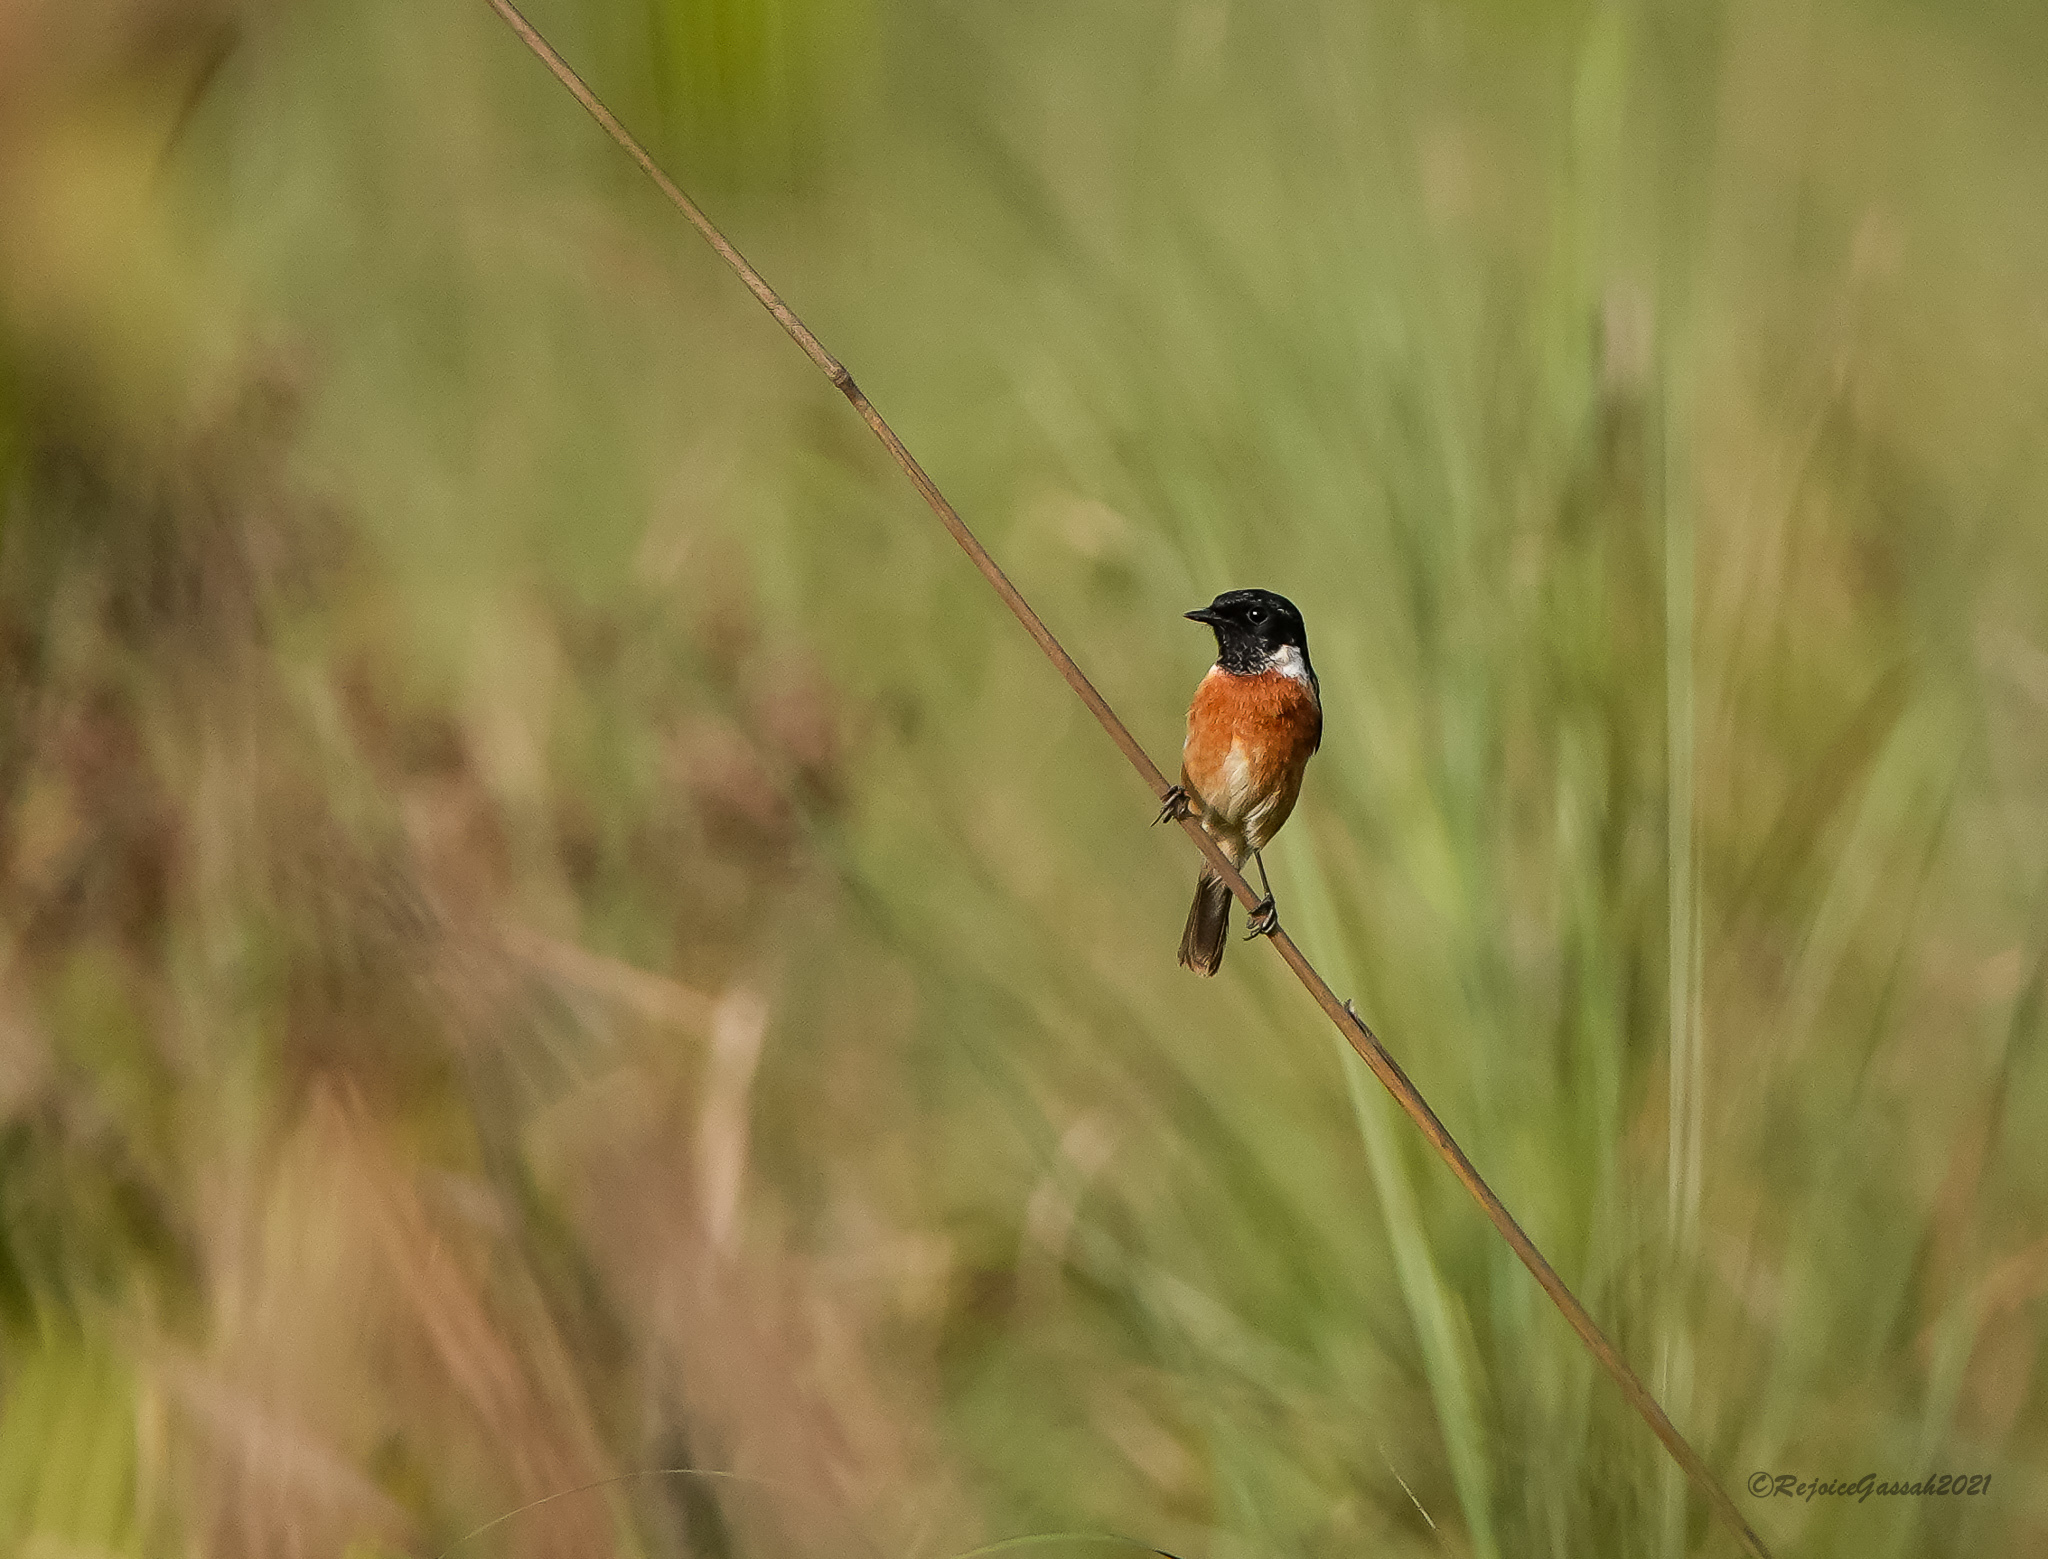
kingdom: Animalia
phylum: Chordata
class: Aves
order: Passeriformes
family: Muscicapidae
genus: Saxicola
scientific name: Saxicola maurus
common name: Siberian stonechat
